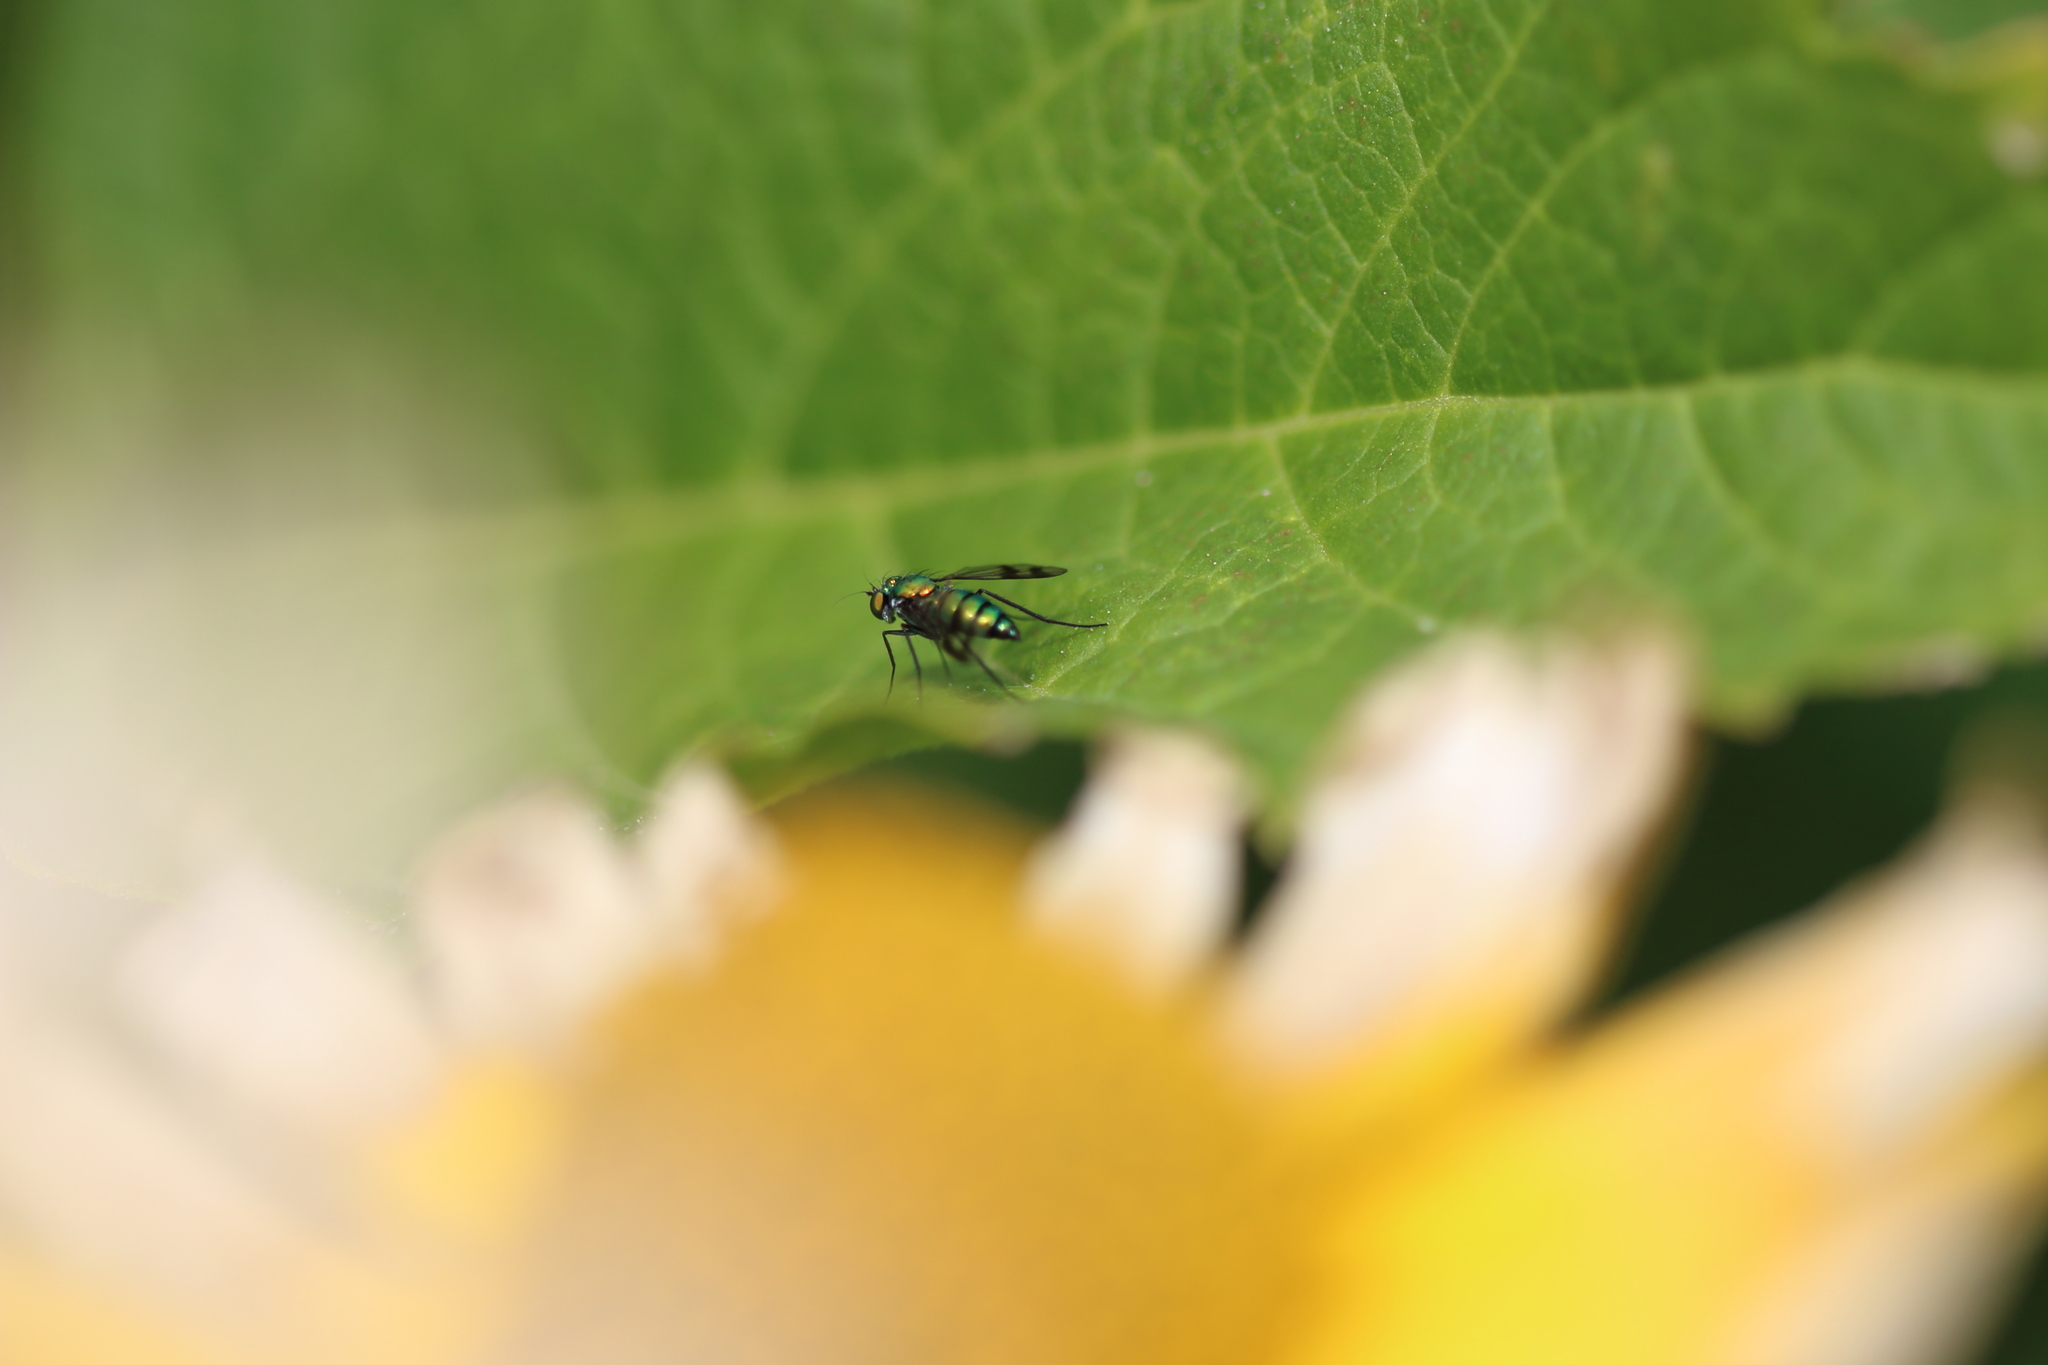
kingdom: Animalia
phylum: Arthropoda
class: Insecta
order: Diptera
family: Dolichopodidae
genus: Condylostylus
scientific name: Condylostylus occidentalis
